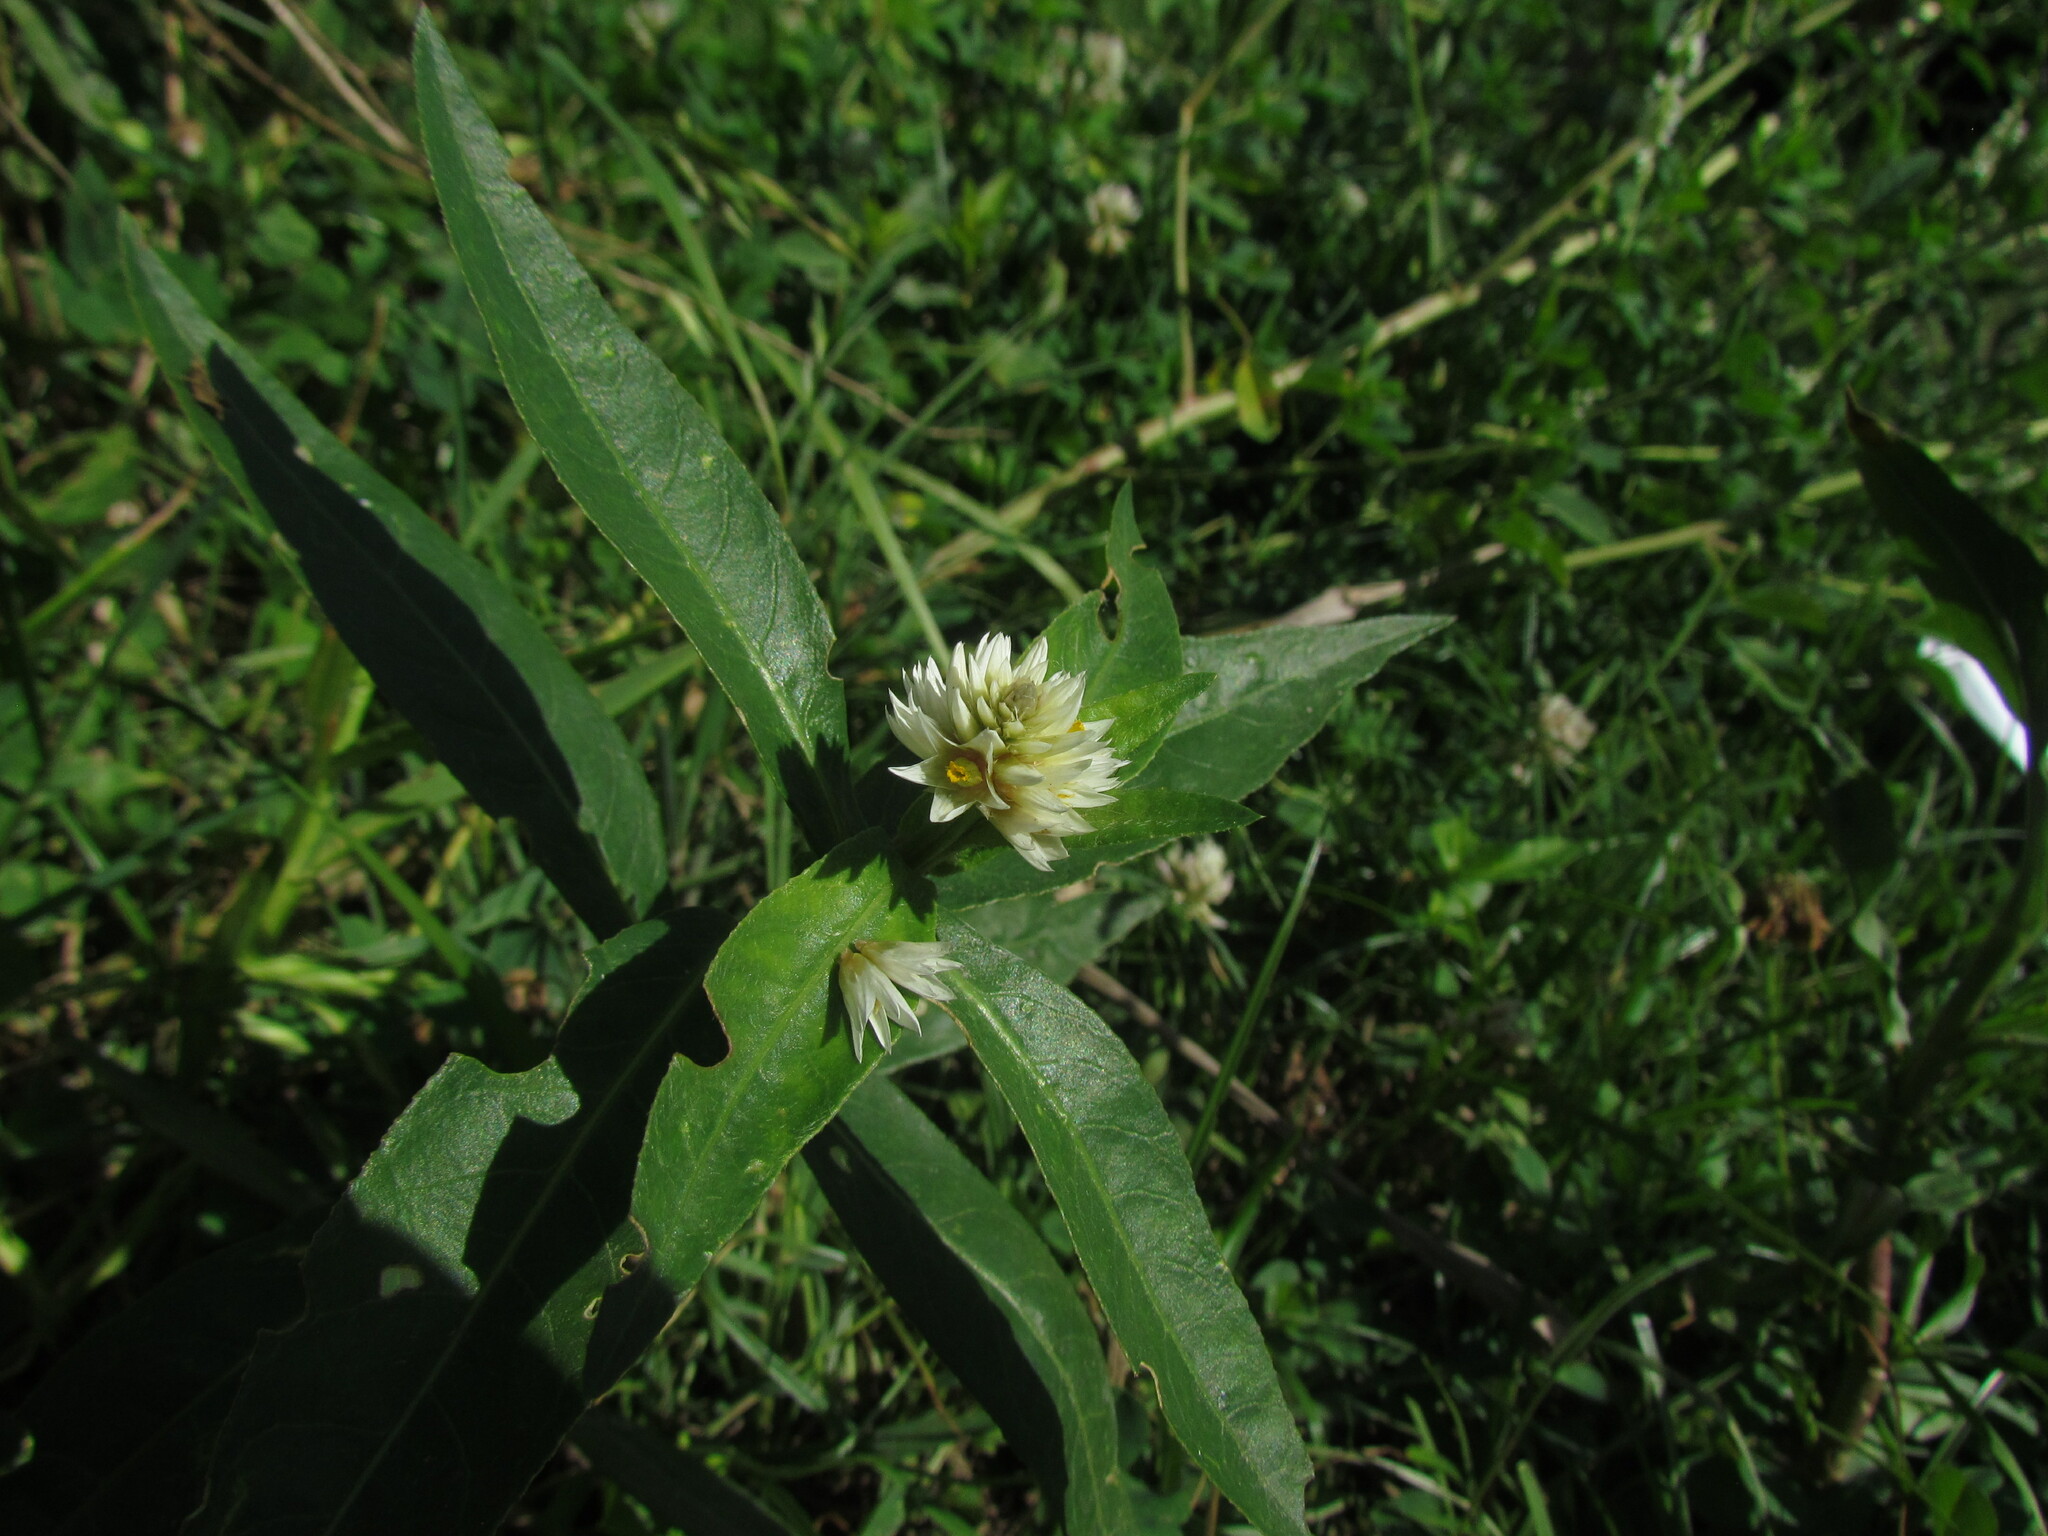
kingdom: Plantae
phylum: Tracheophyta
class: Magnoliopsida
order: Caryophyllales
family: Amaranthaceae
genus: Alternanthera
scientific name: Alternanthera philoxeroides
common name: Alligatorweed
